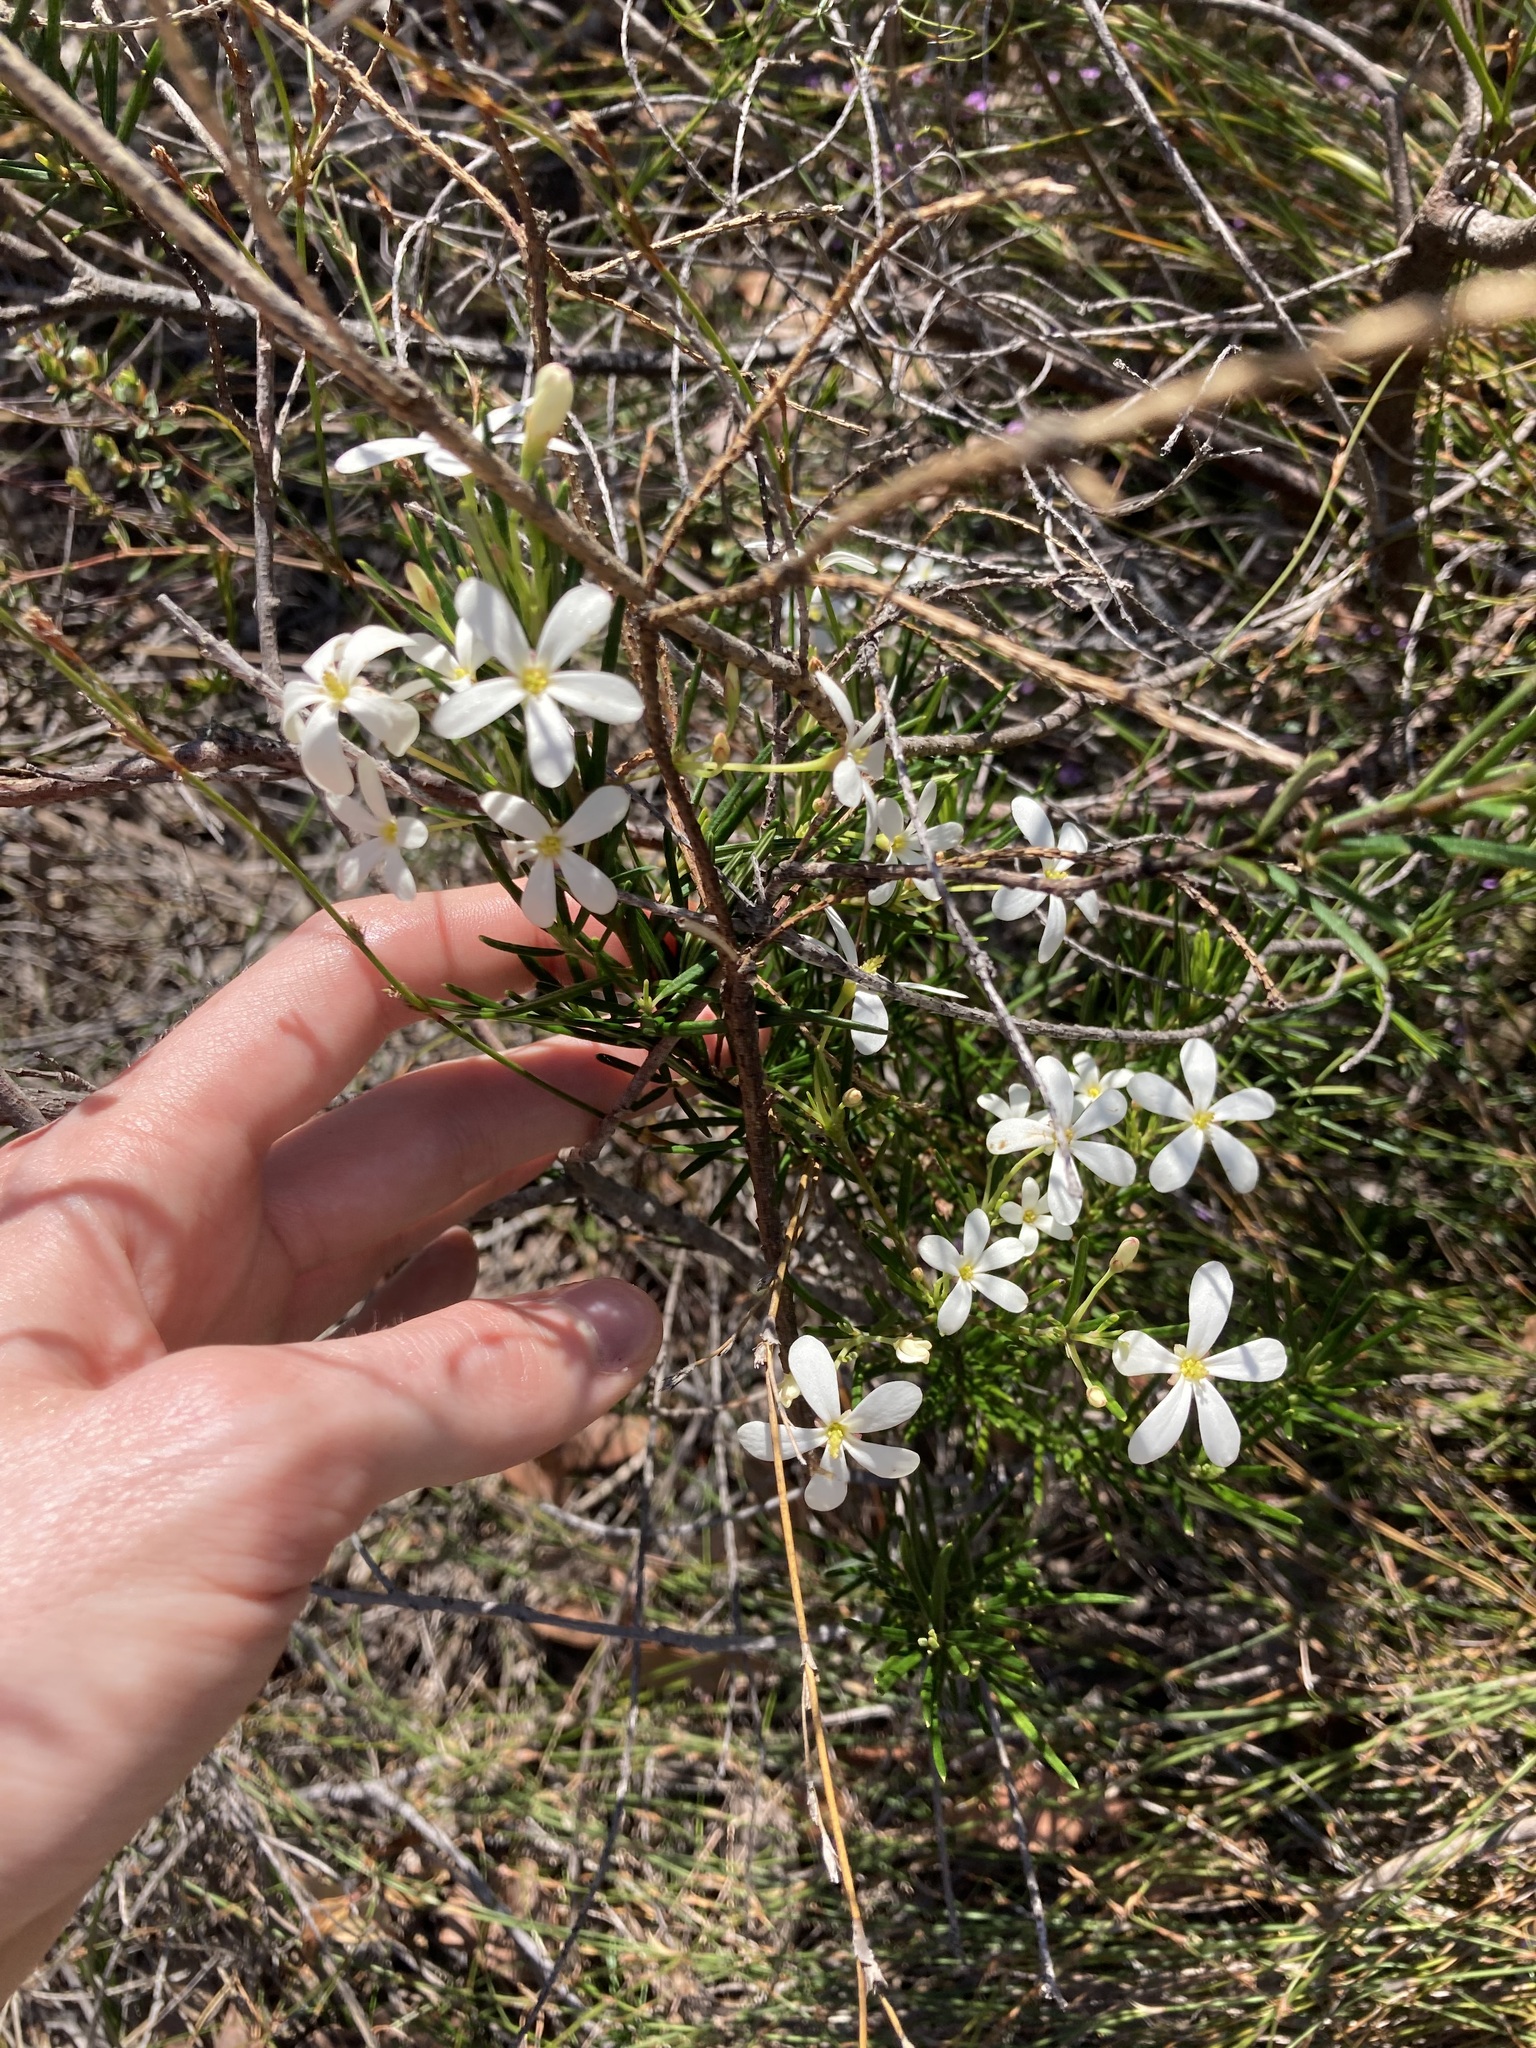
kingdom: Plantae
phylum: Tracheophyta
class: Magnoliopsida
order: Malpighiales
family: Euphorbiaceae
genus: Ricinocarpos
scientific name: Ricinocarpos pinifolius
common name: Weddingbush
